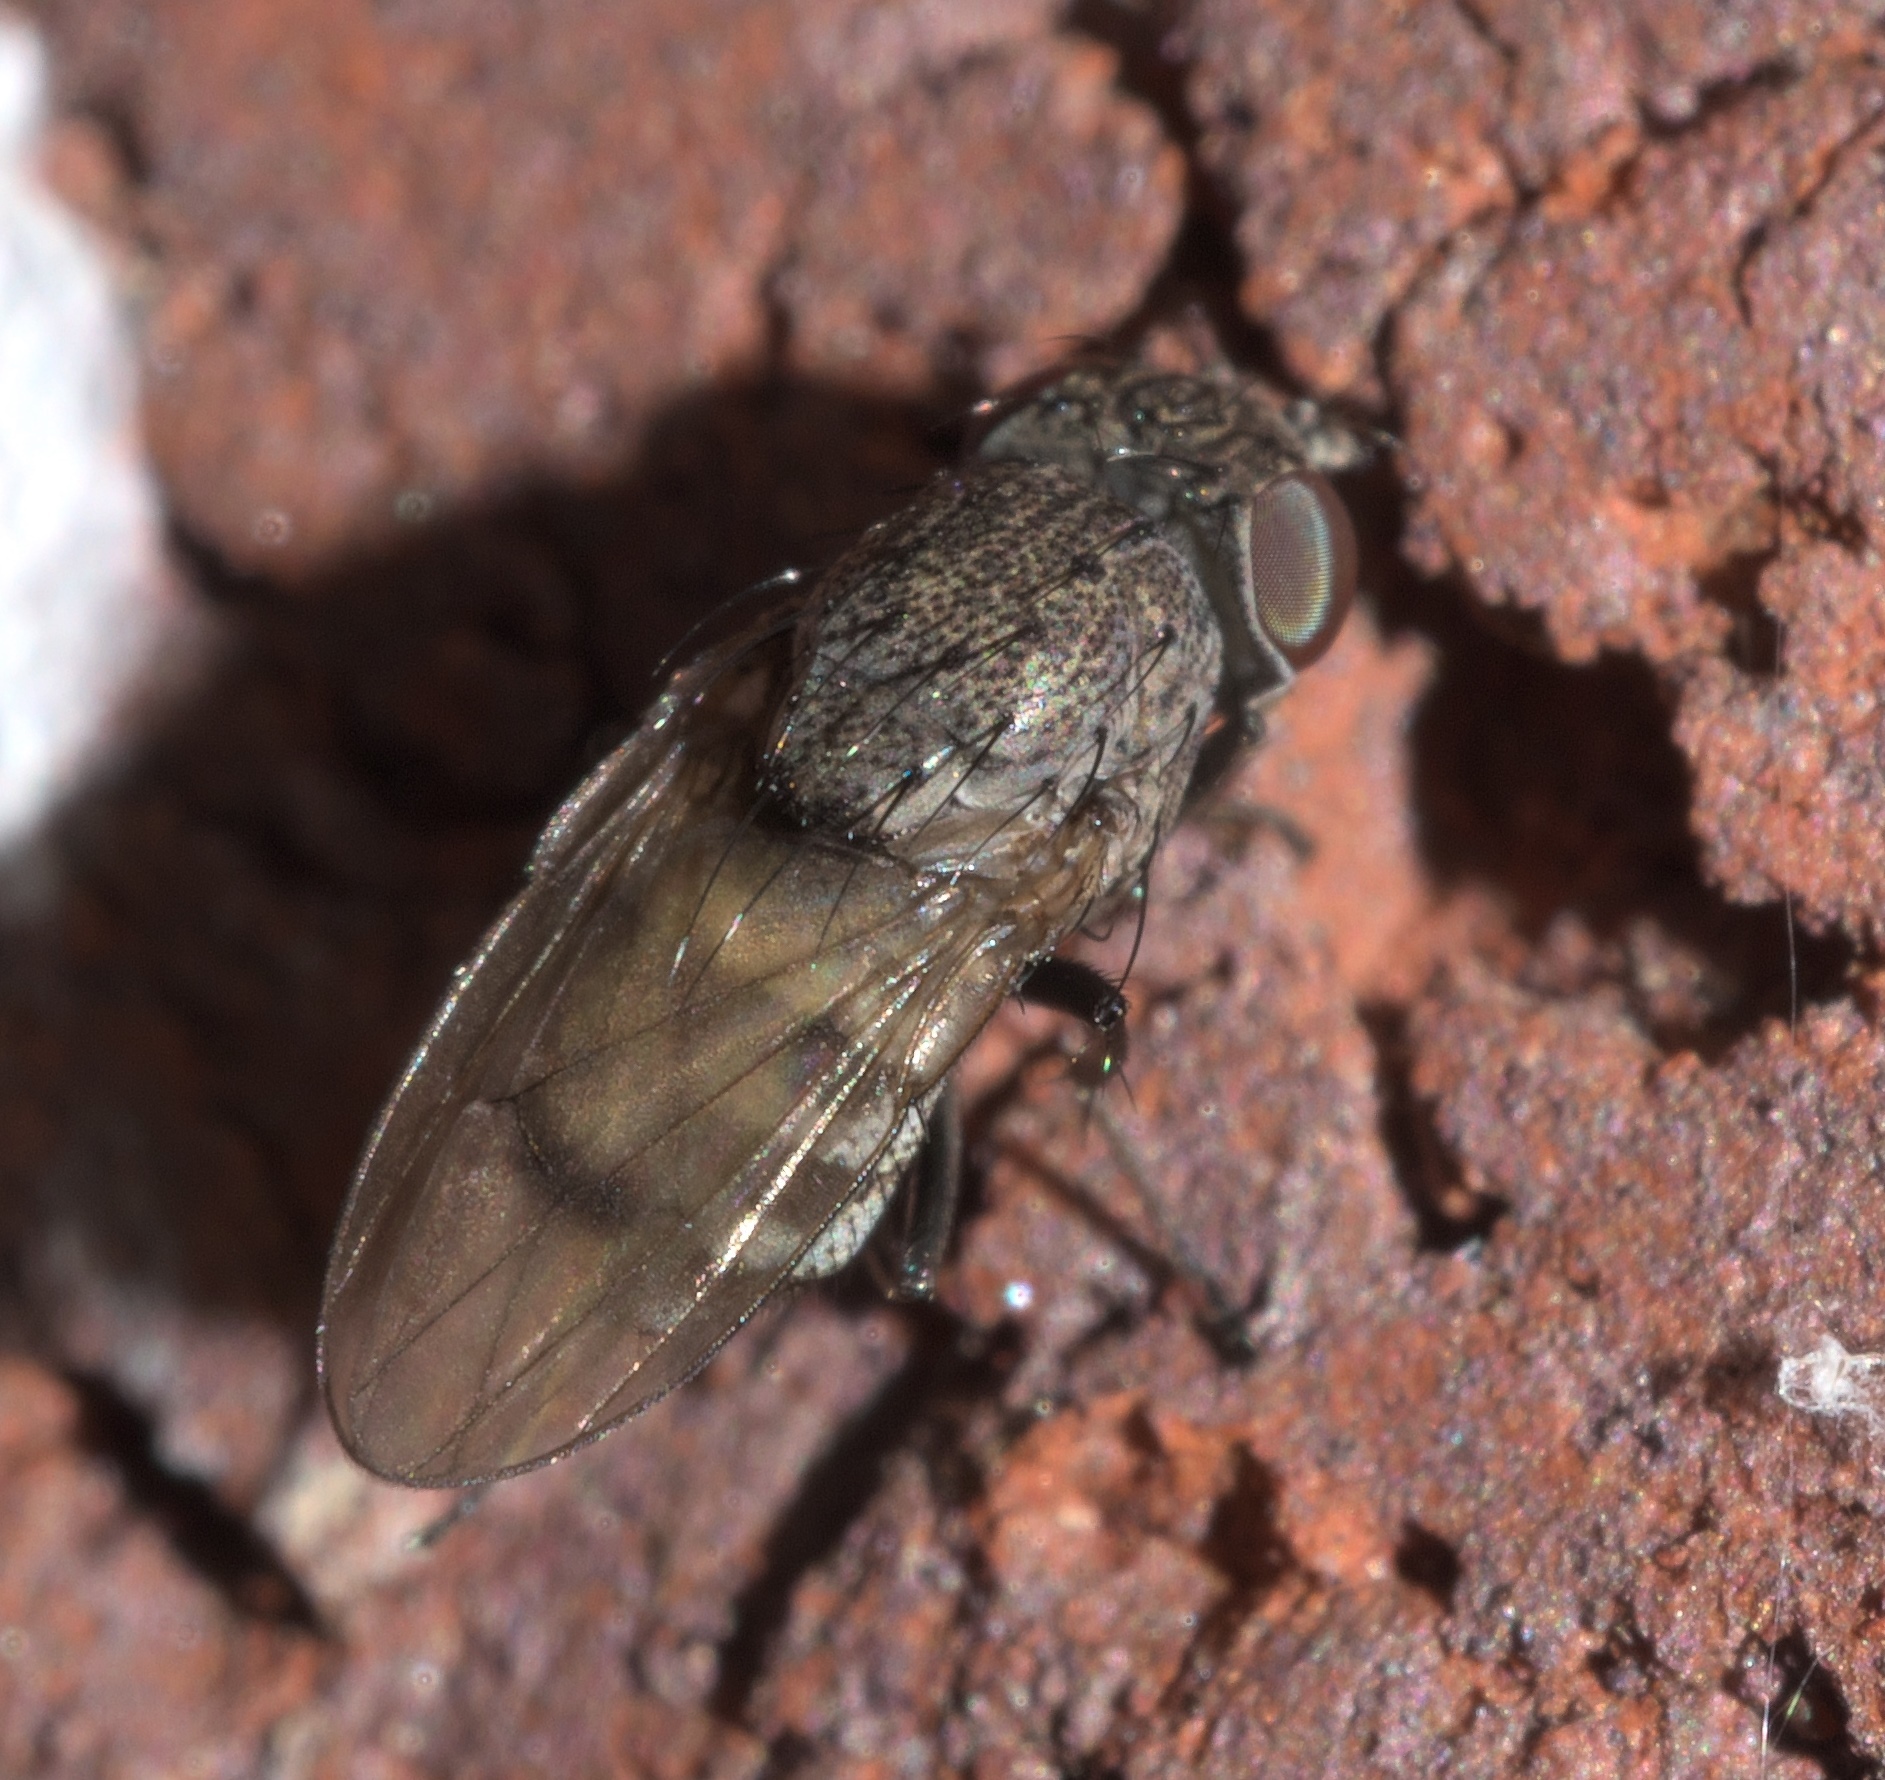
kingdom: Animalia
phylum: Arthropoda
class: Insecta
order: Diptera
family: Ephydridae
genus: Paralimna
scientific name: Paralimna punctipennis
